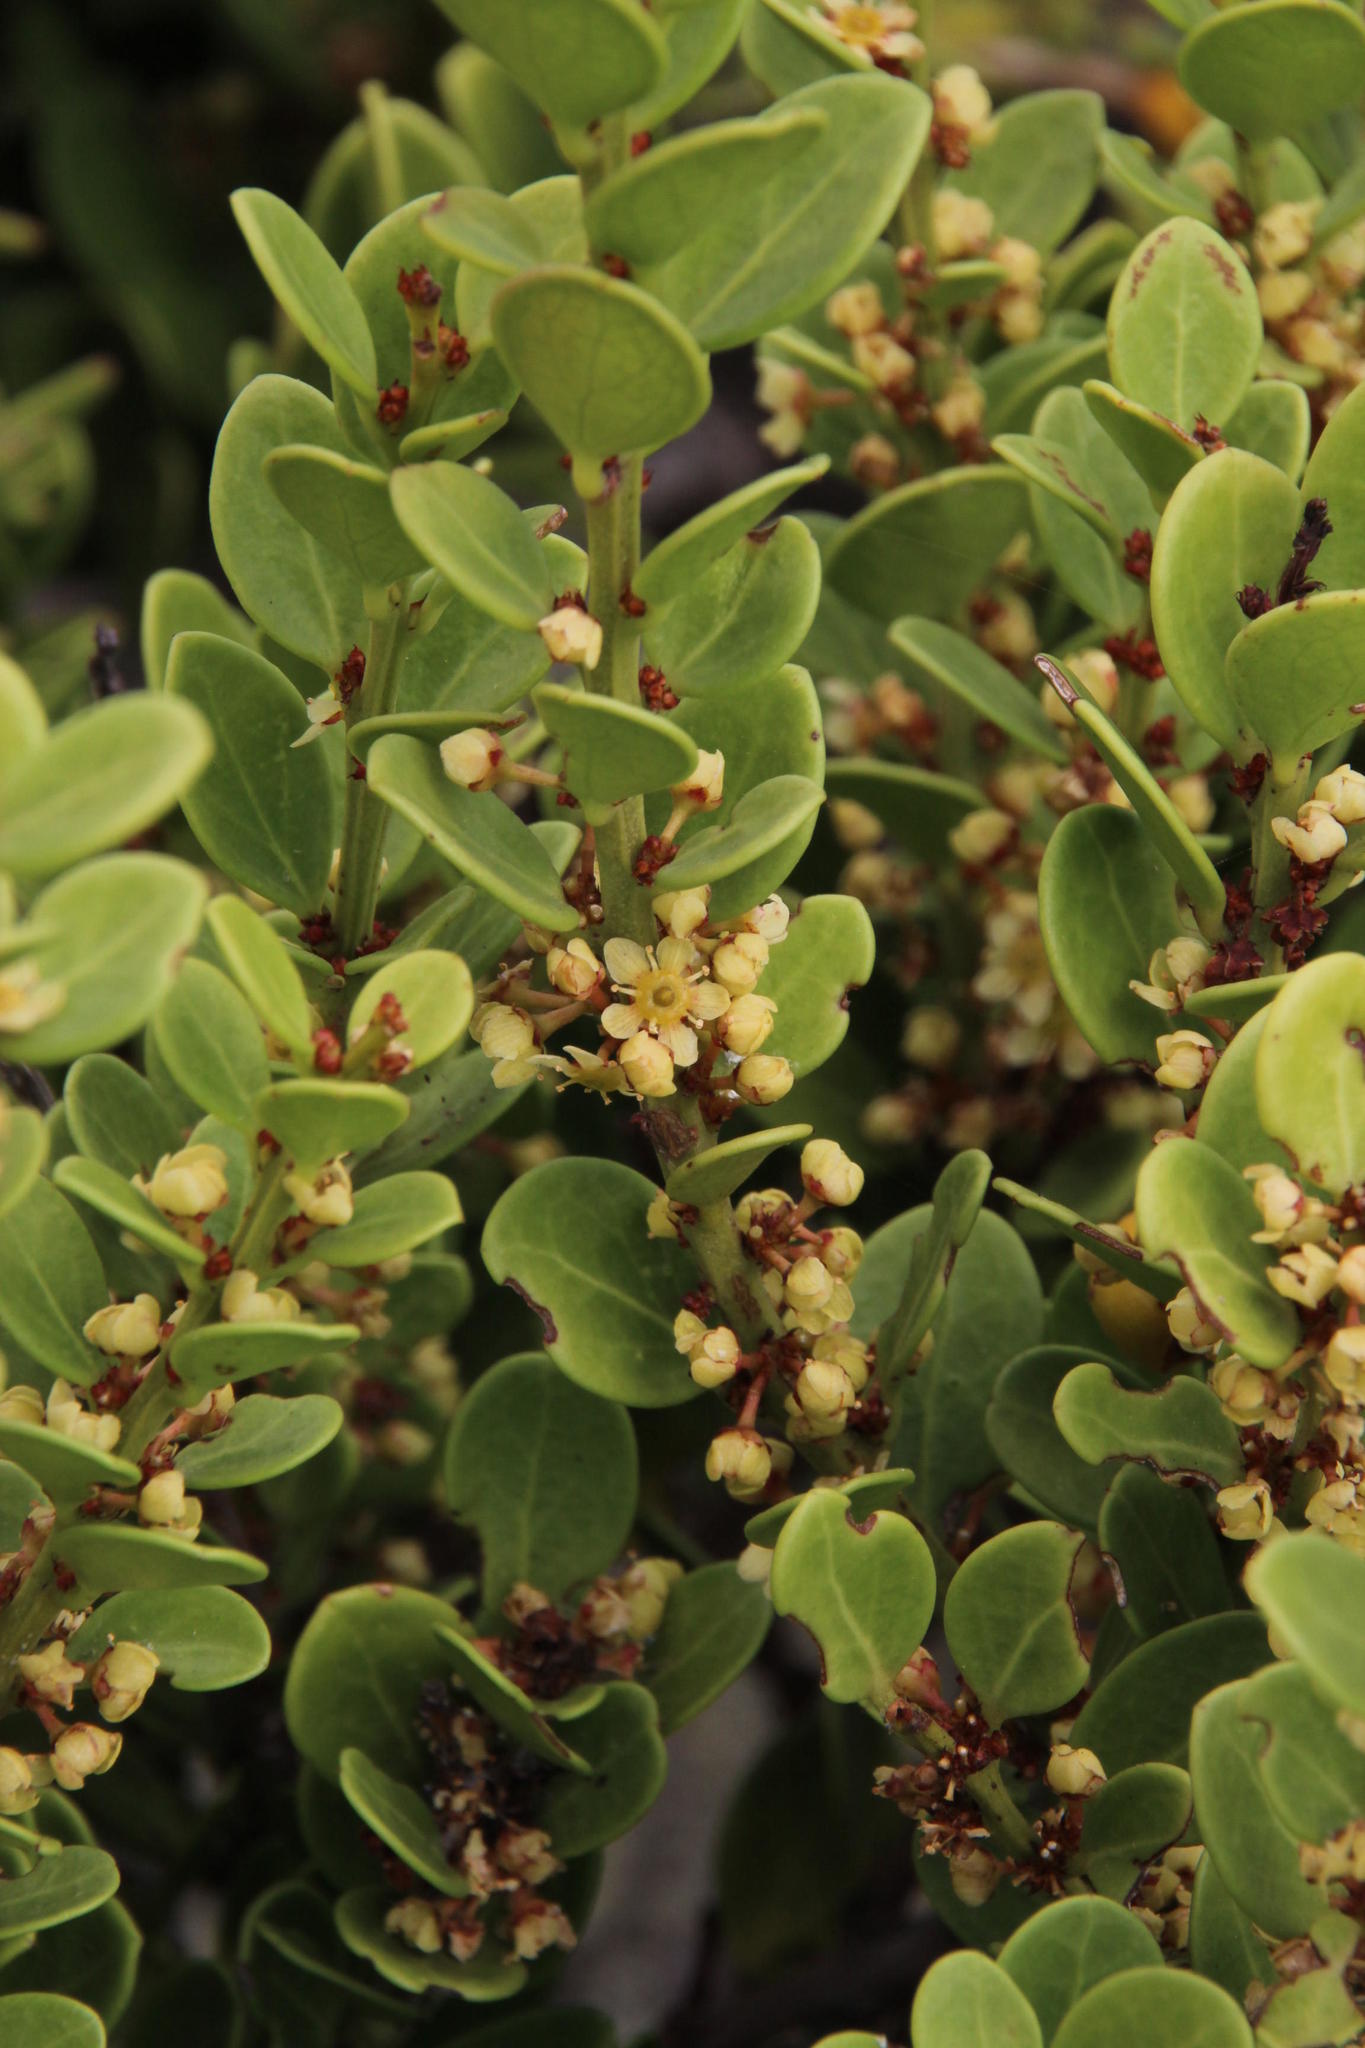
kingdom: Plantae
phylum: Tracheophyta
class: Magnoliopsida
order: Celastrales
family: Celastraceae
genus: Gymnosporia
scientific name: Gymnosporia lucida
